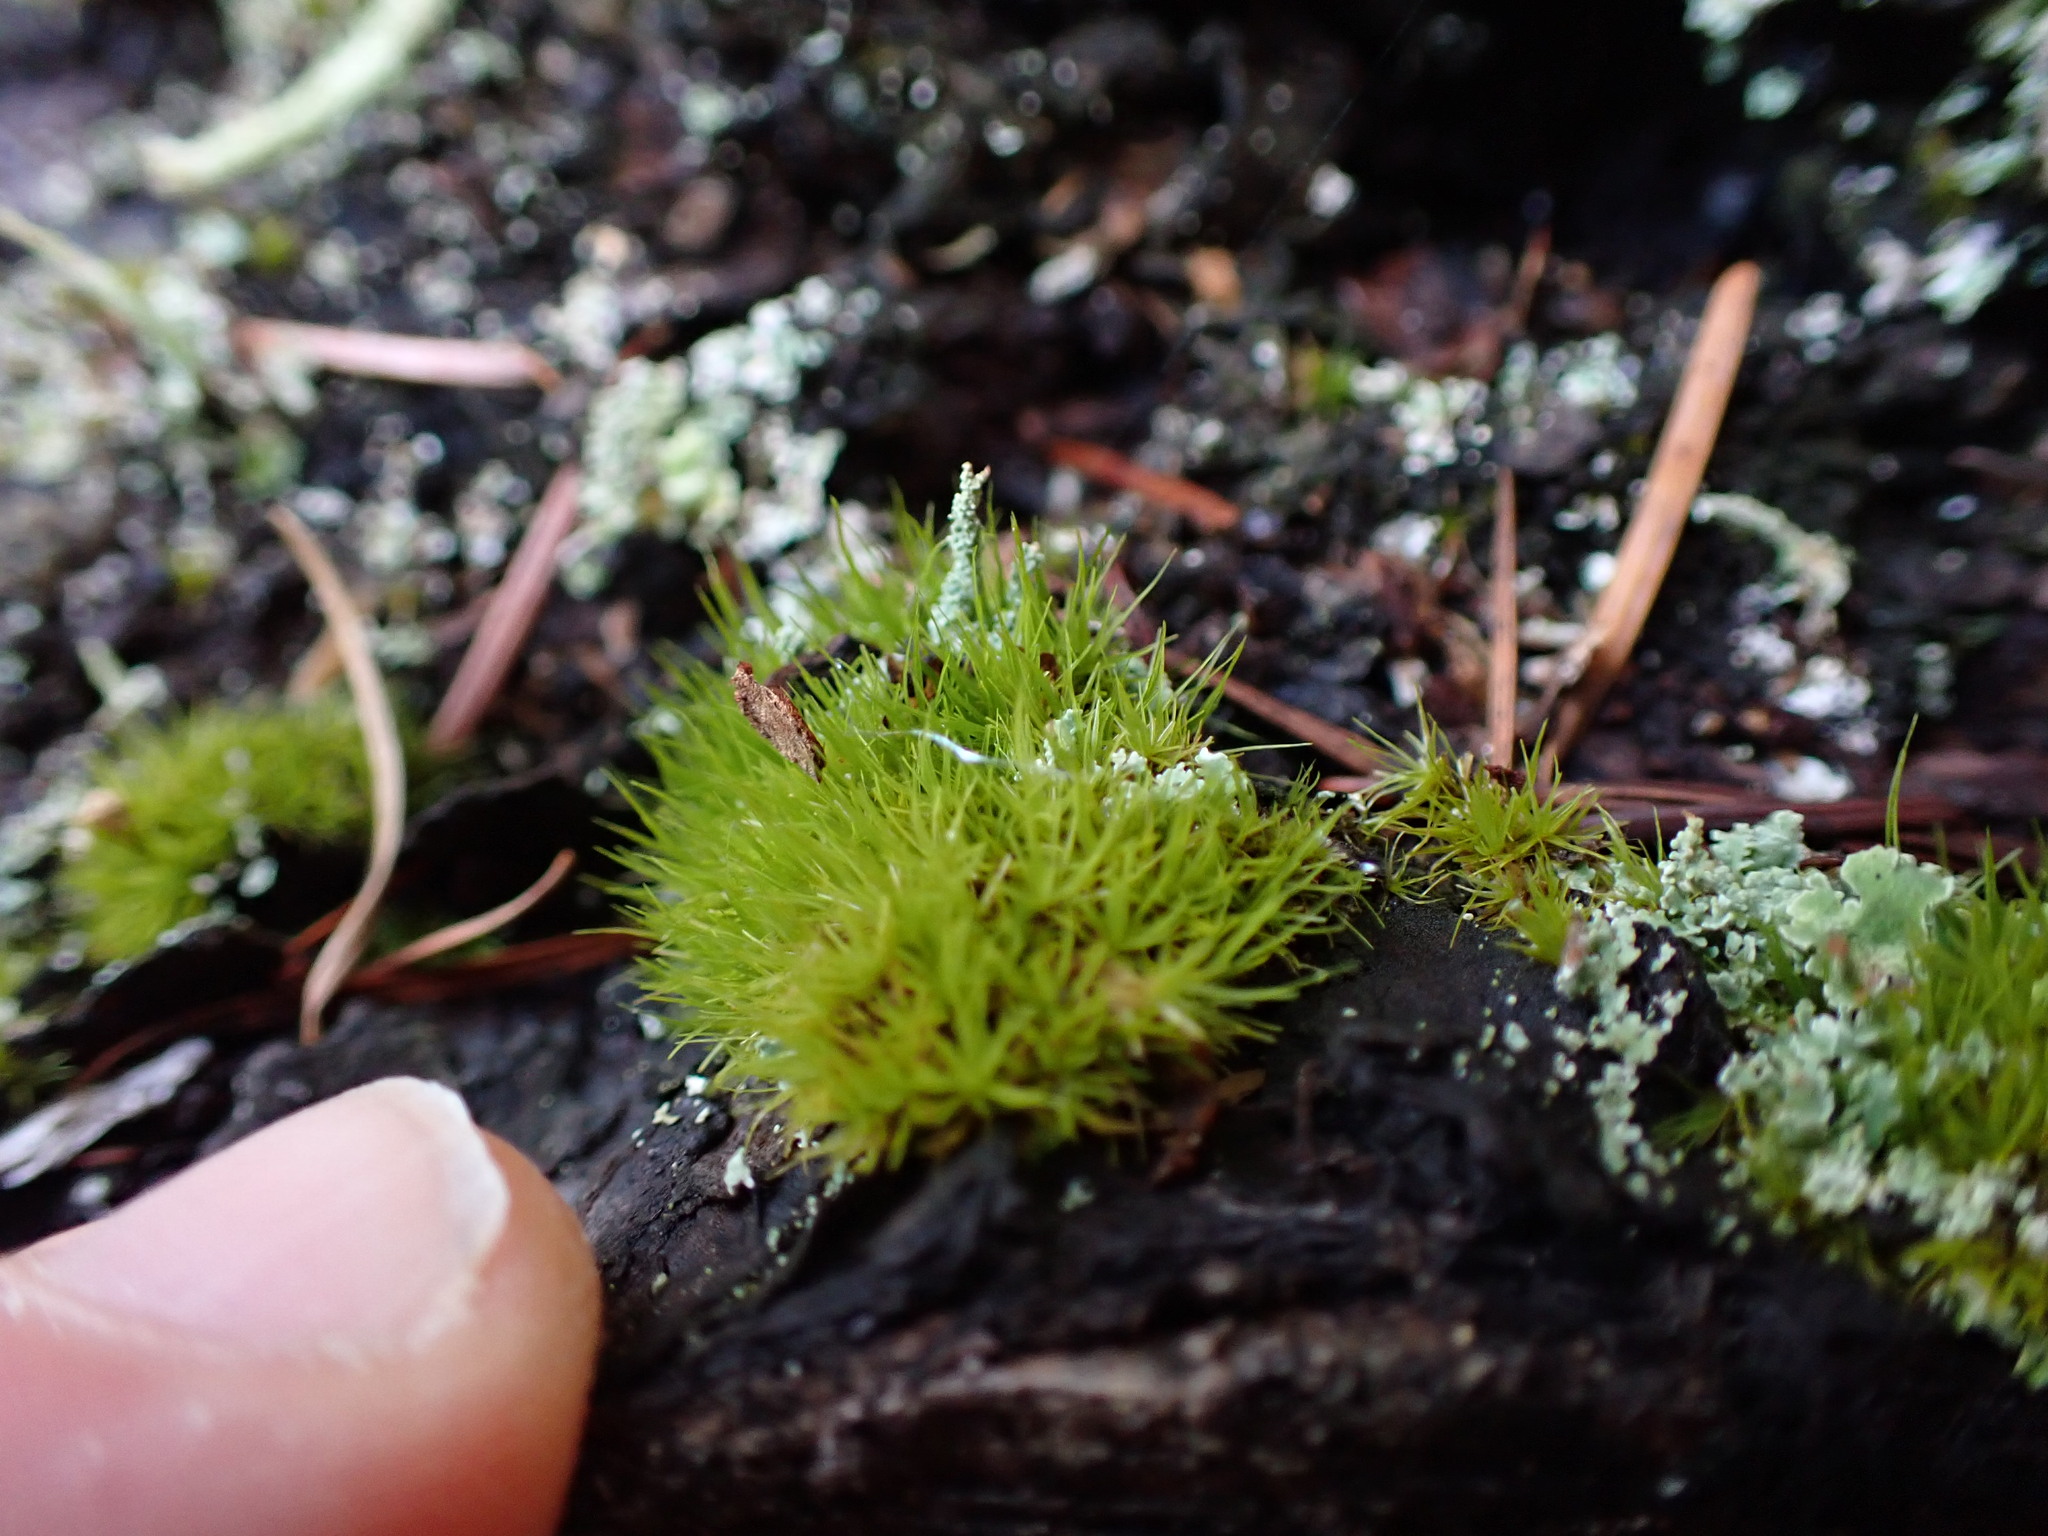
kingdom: Plantae
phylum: Bryophyta
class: Bryopsida
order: Dicranales
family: Dicranaceae
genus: Orthodicranum
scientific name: Orthodicranum tauricum
